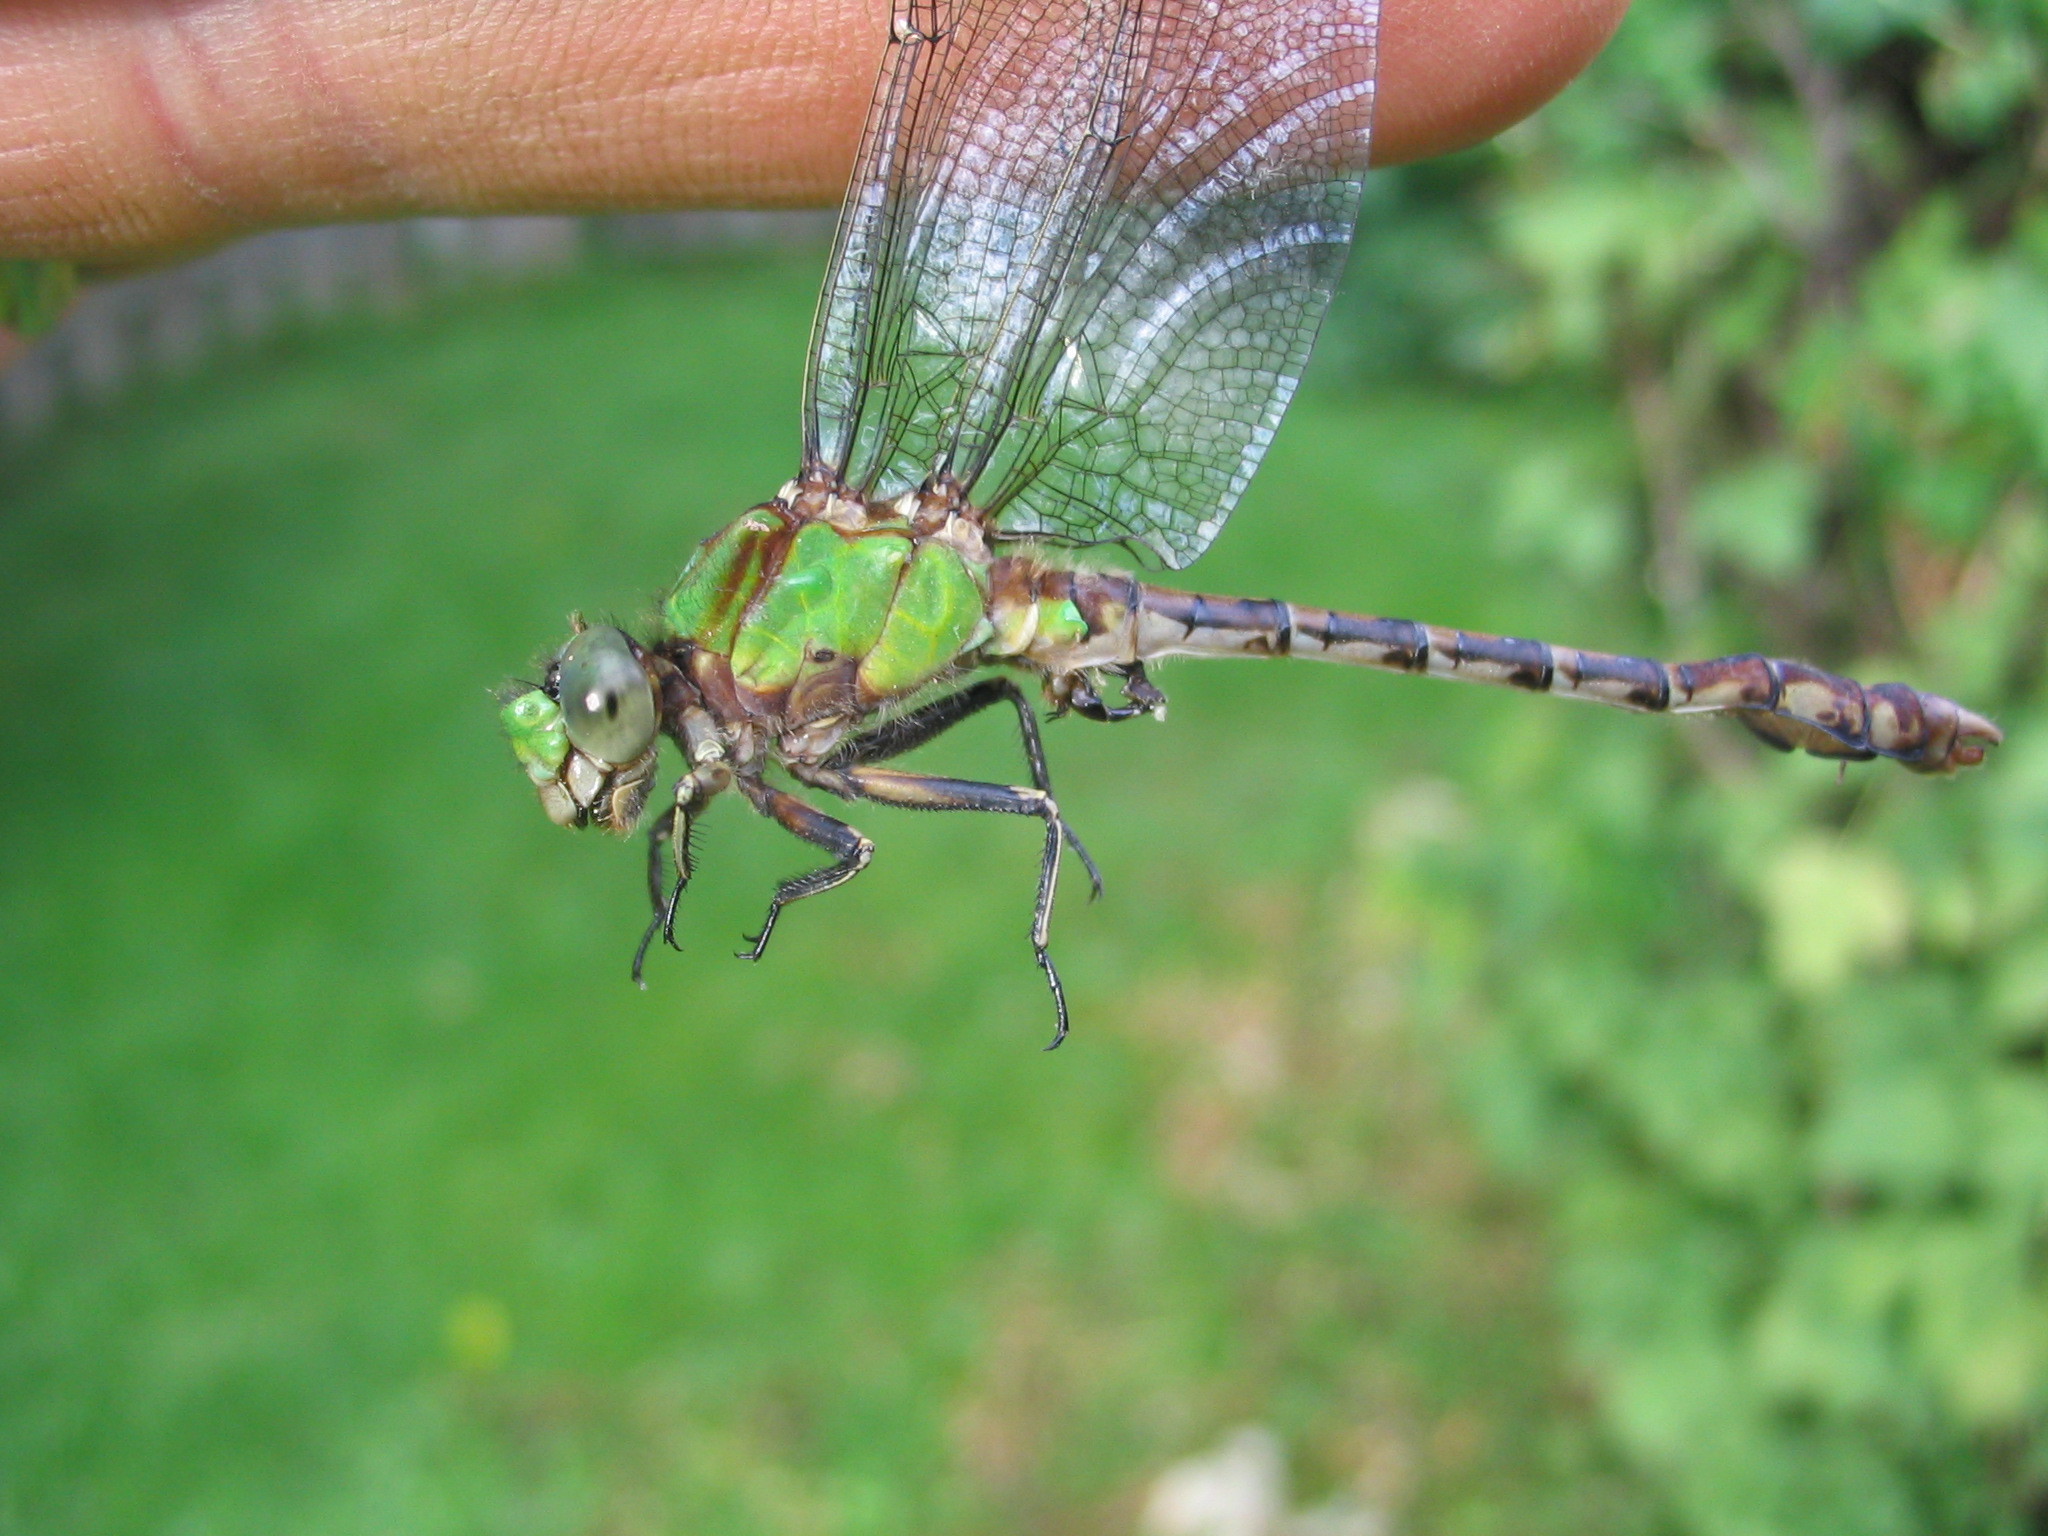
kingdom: Animalia
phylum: Arthropoda
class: Insecta
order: Odonata
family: Gomphidae
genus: Ophiogomphus
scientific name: Ophiogomphus rupinsulensis
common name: Rusty snaketail
